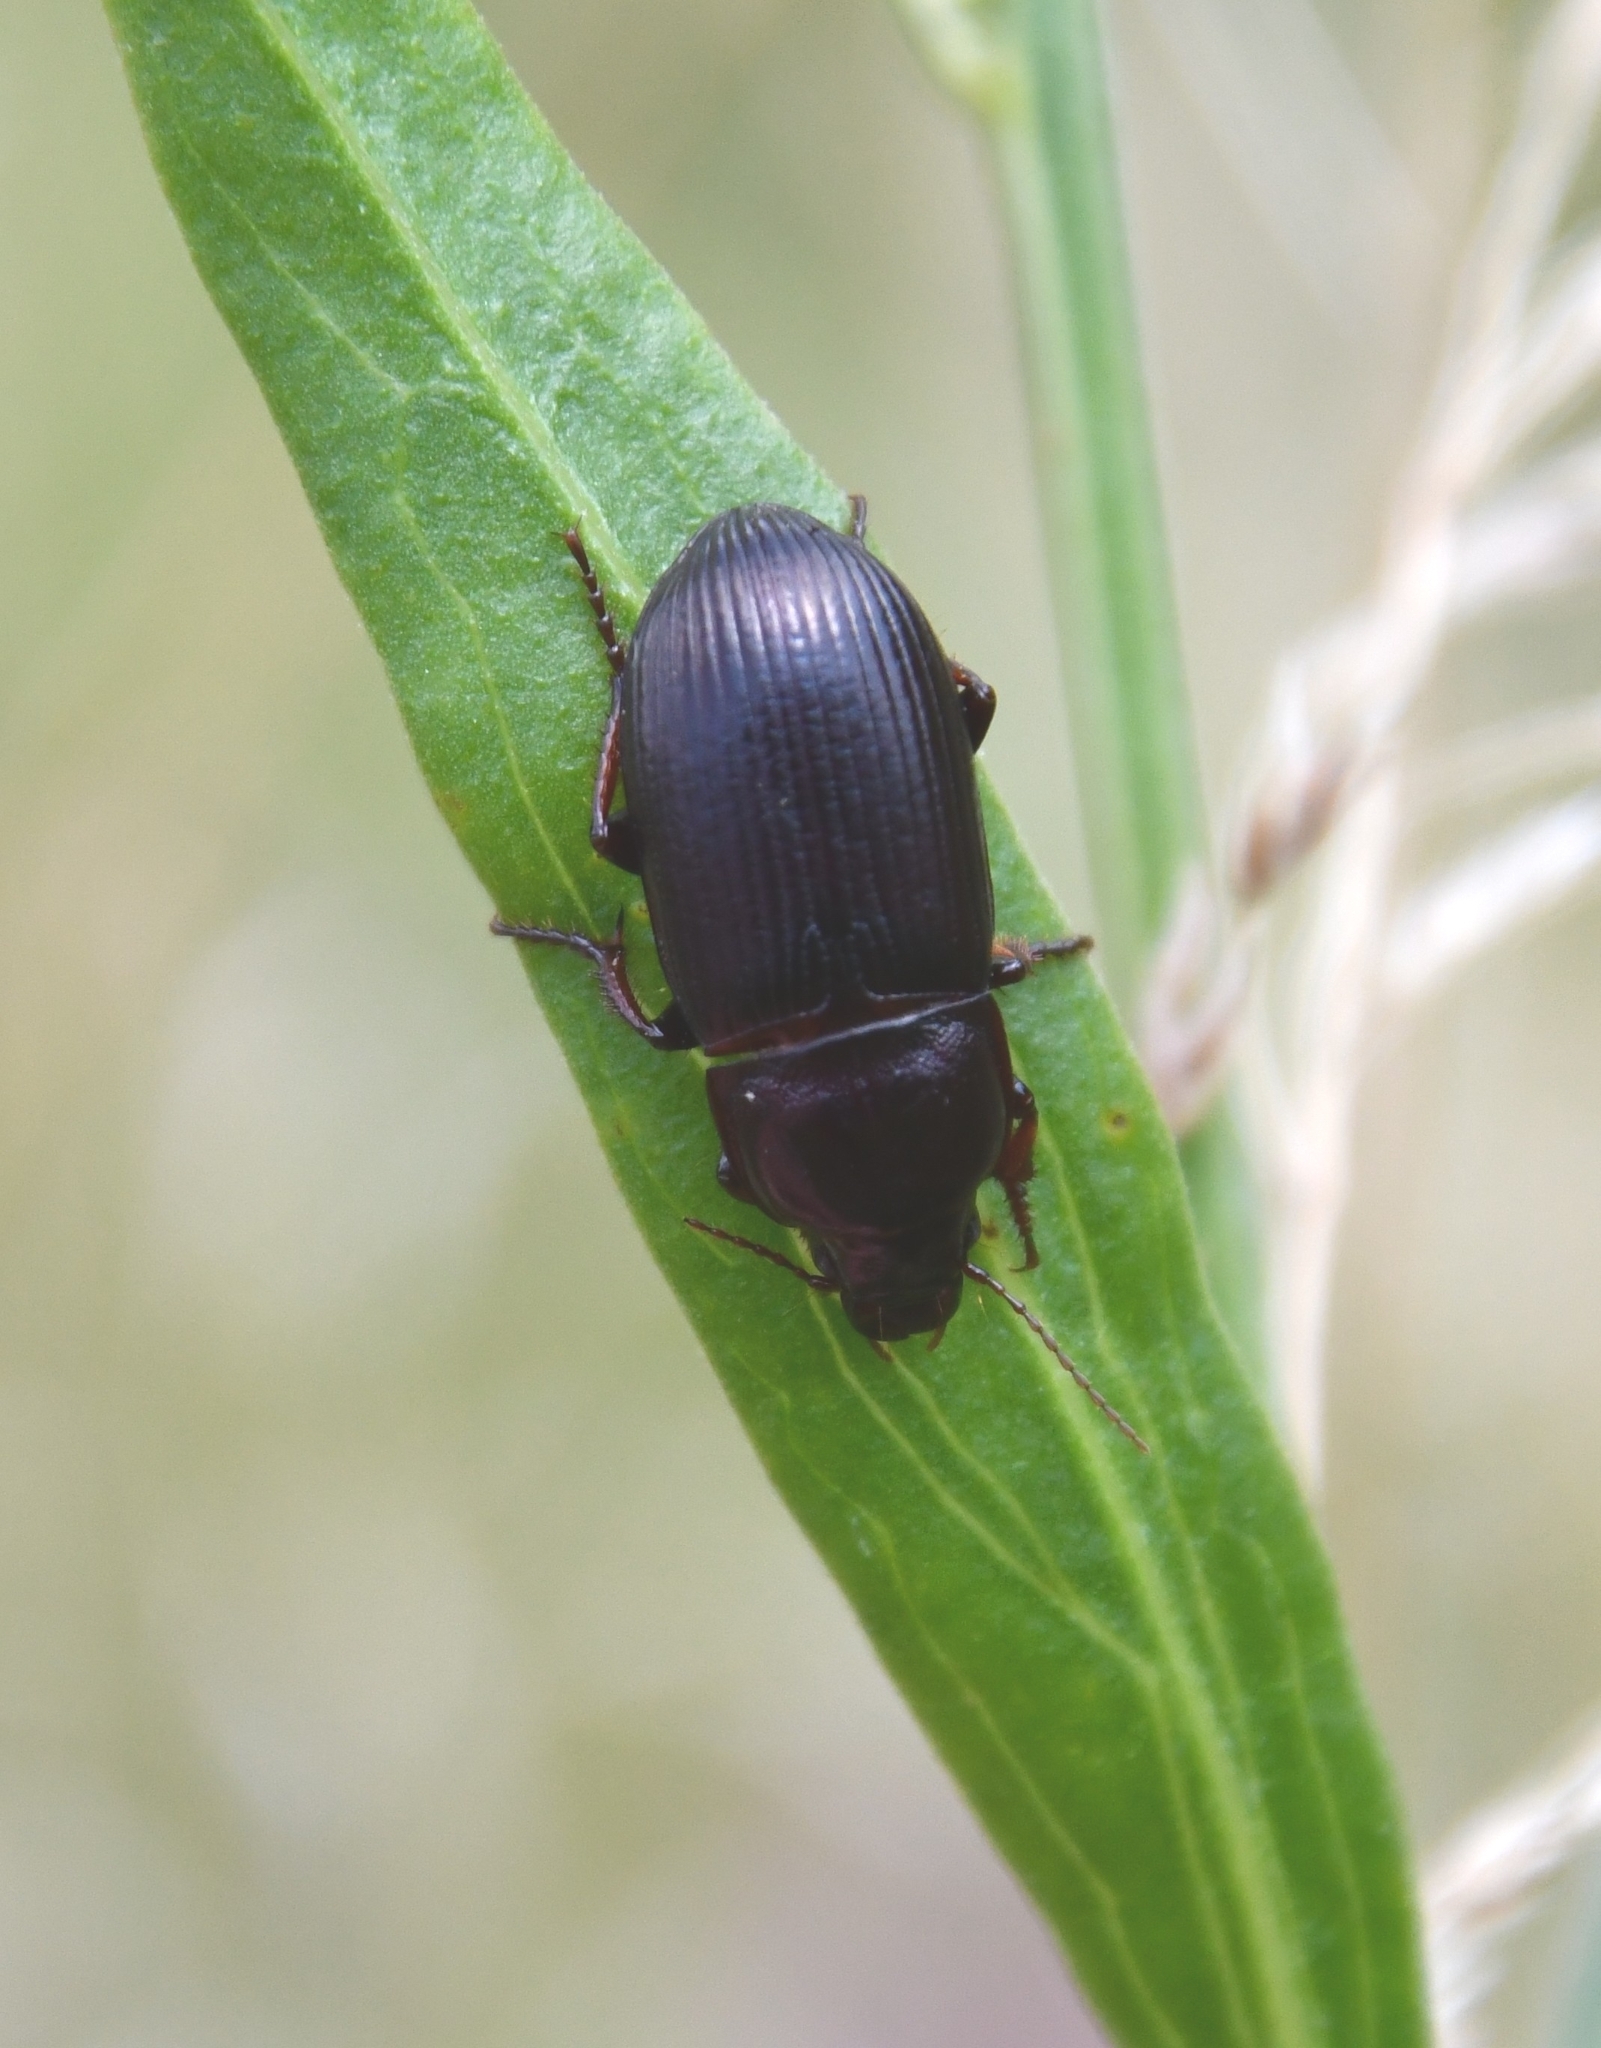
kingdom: Animalia
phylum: Arthropoda
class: Insecta
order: Coleoptera
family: Carabidae
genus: Zabrus
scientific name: Zabrus tenebrioides
